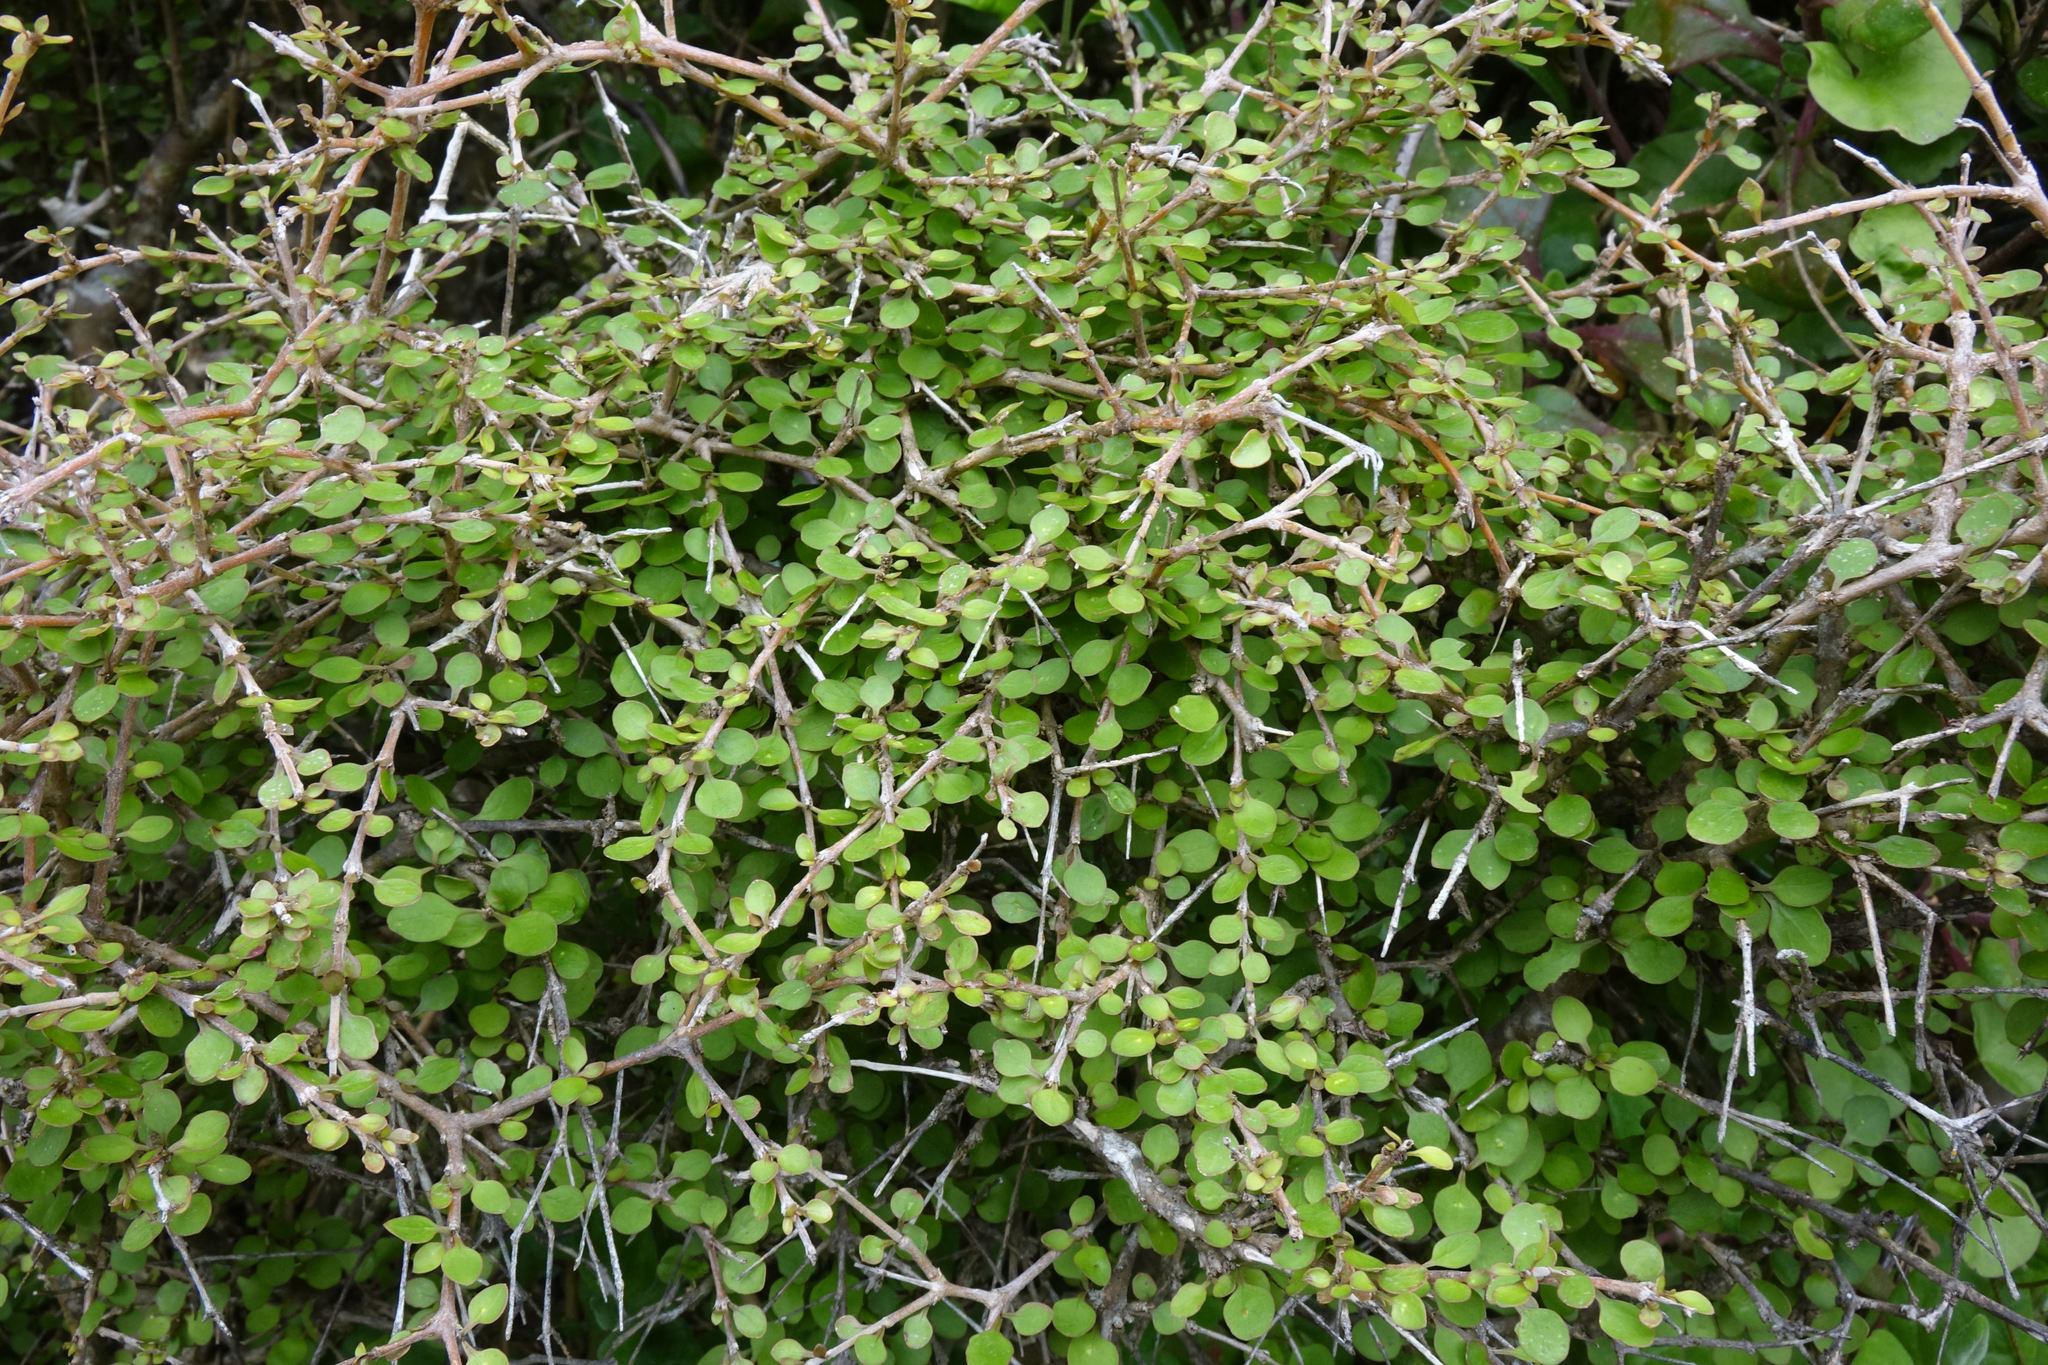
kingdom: Plantae
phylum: Tracheophyta
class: Magnoliopsida
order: Gentianales
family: Rubiaceae
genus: Coprosma
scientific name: Coprosma virescens
